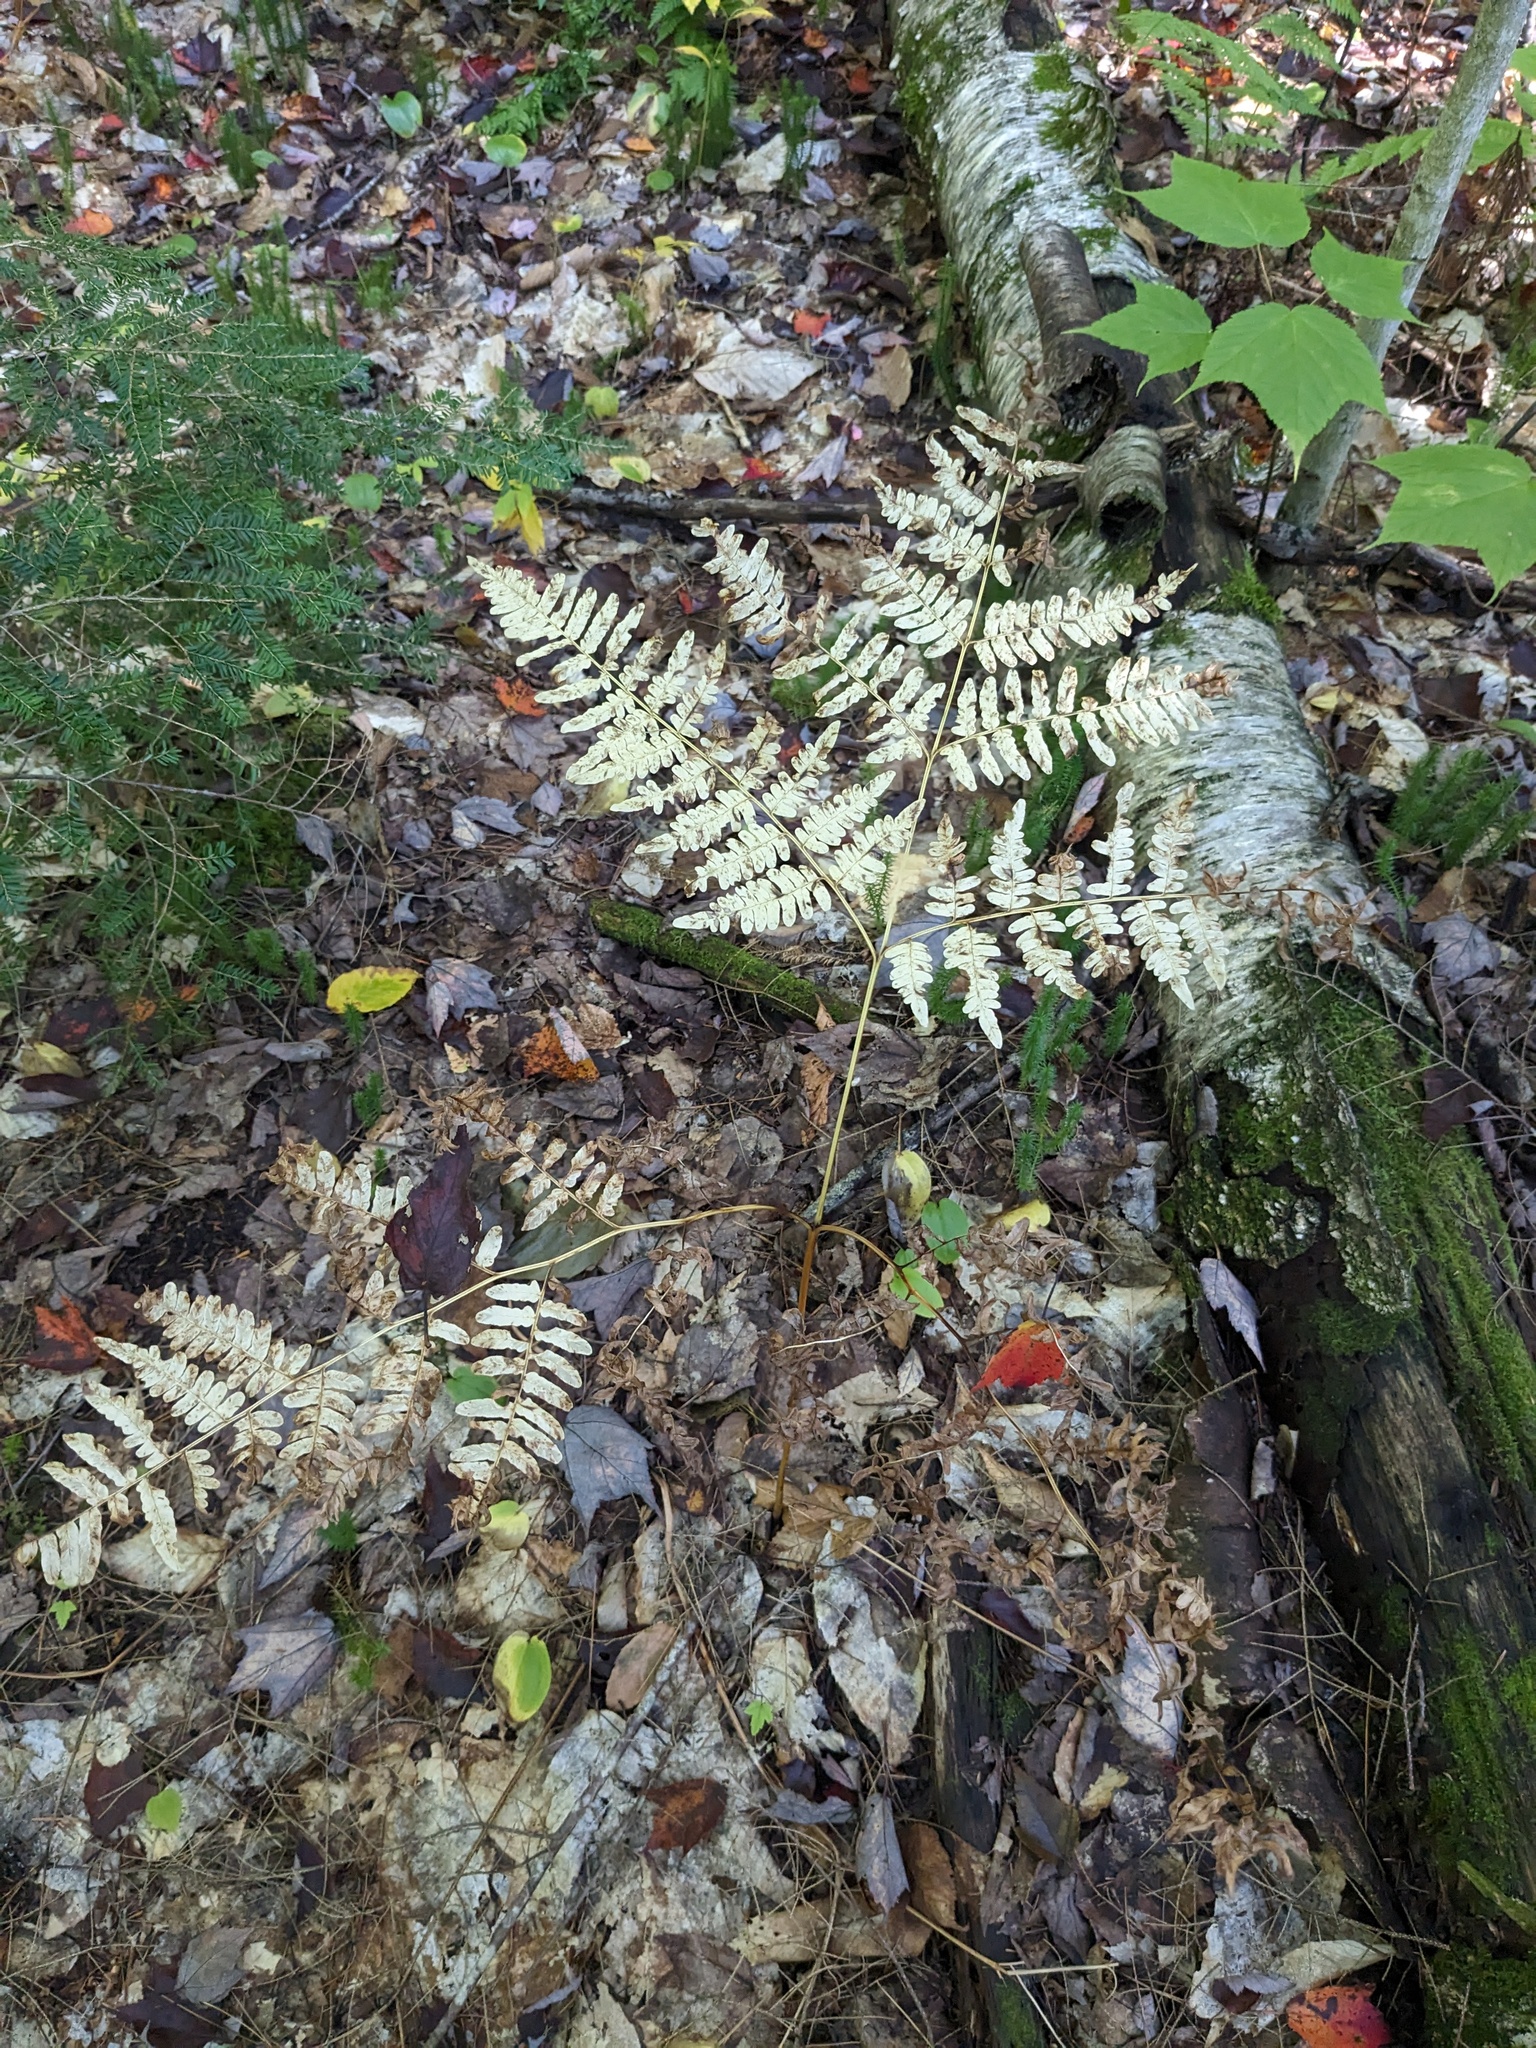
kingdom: Plantae
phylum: Tracheophyta
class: Polypodiopsida
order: Polypodiales
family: Dennstaedtiaceae
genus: Pteridium
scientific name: Pteridium aquilinum
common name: Bracken
